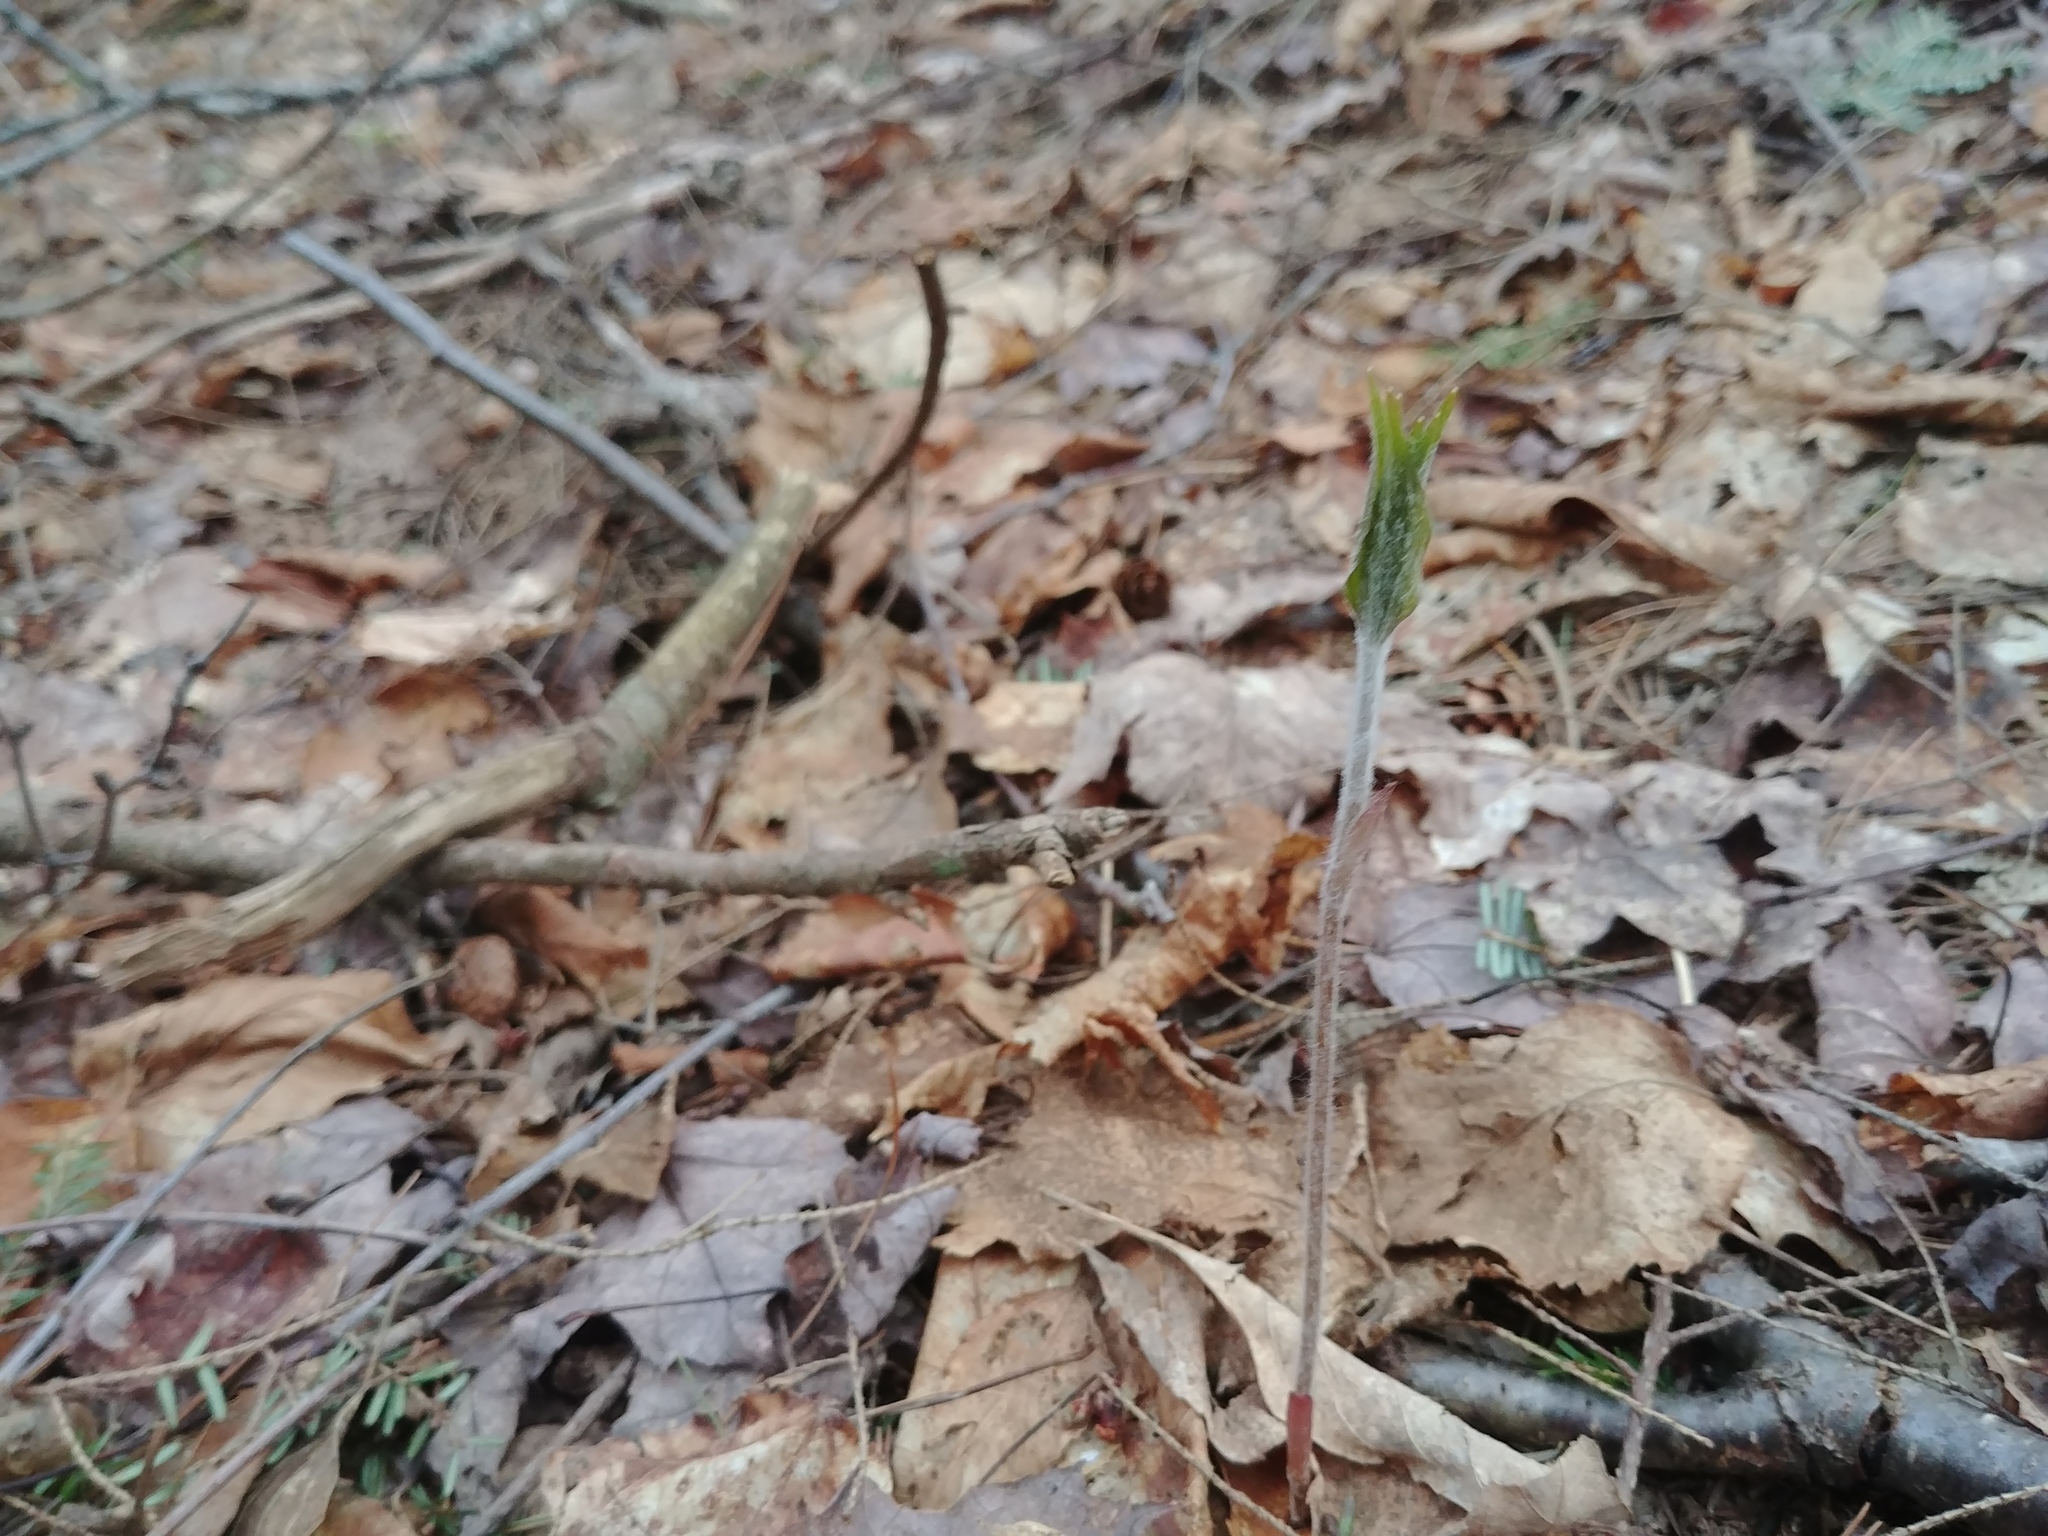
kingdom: Plantae
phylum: Tracheophyta
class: Liliopsida
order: Liliales
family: Liliaceae
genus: Medeola
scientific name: Medeola virginiana
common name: Indian cucumber-root
